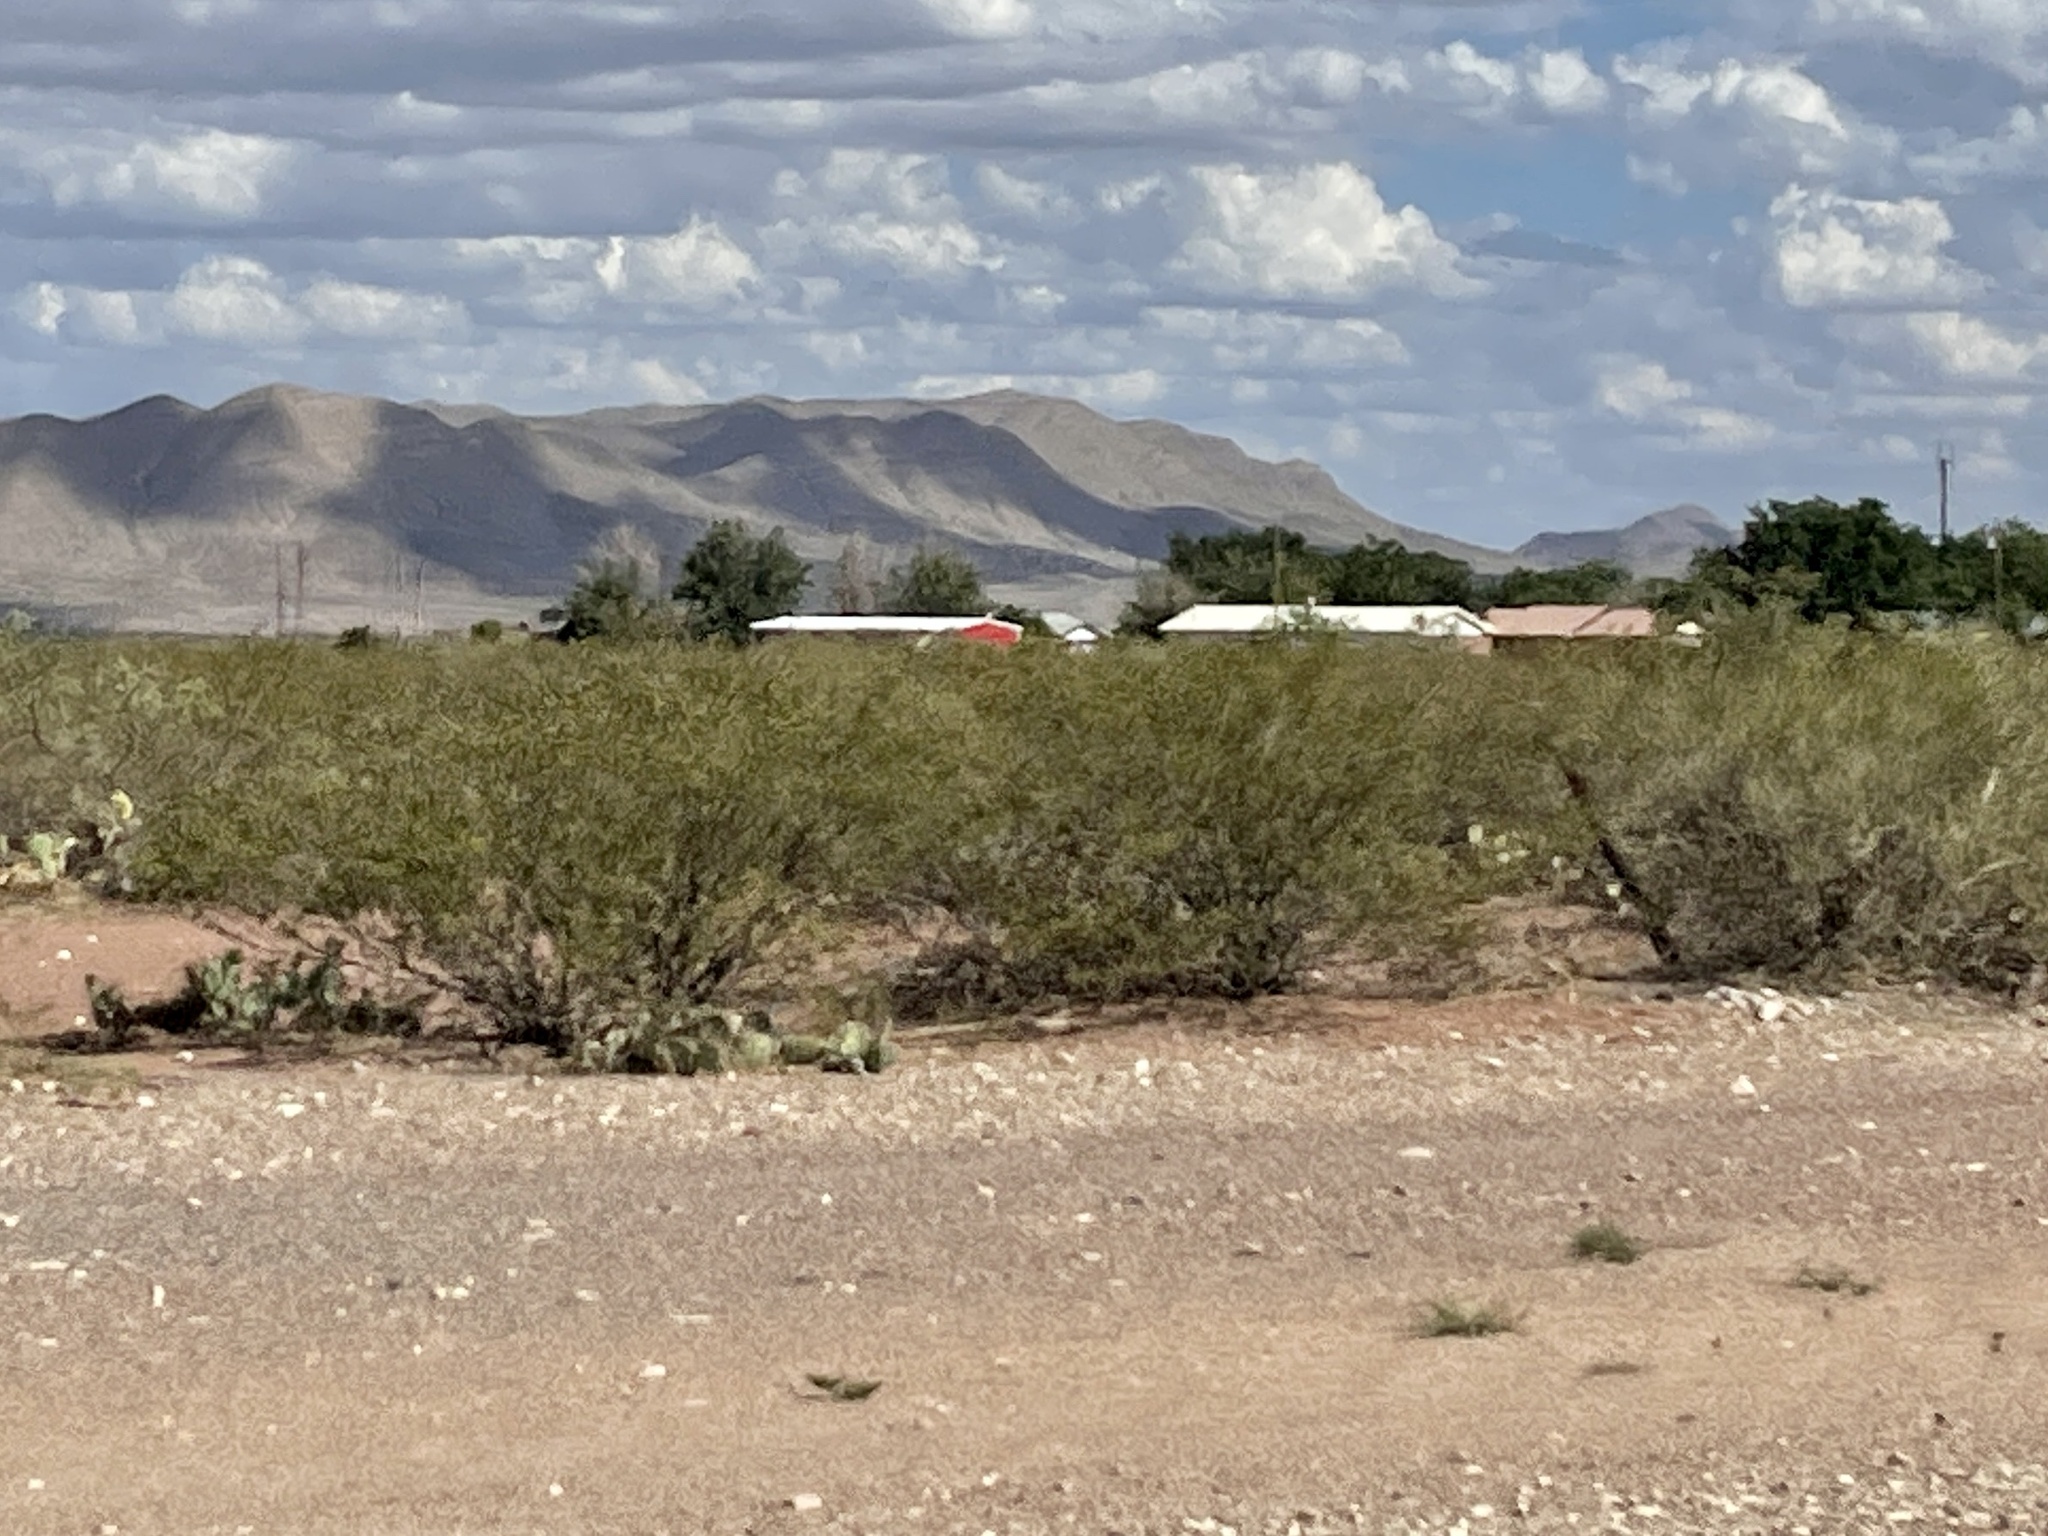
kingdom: Plantae
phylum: Tracheophyta
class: Magnoliopsida
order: Zygophyllales
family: Zygophyllaceae
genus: Larrea
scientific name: Larrea tridentata
